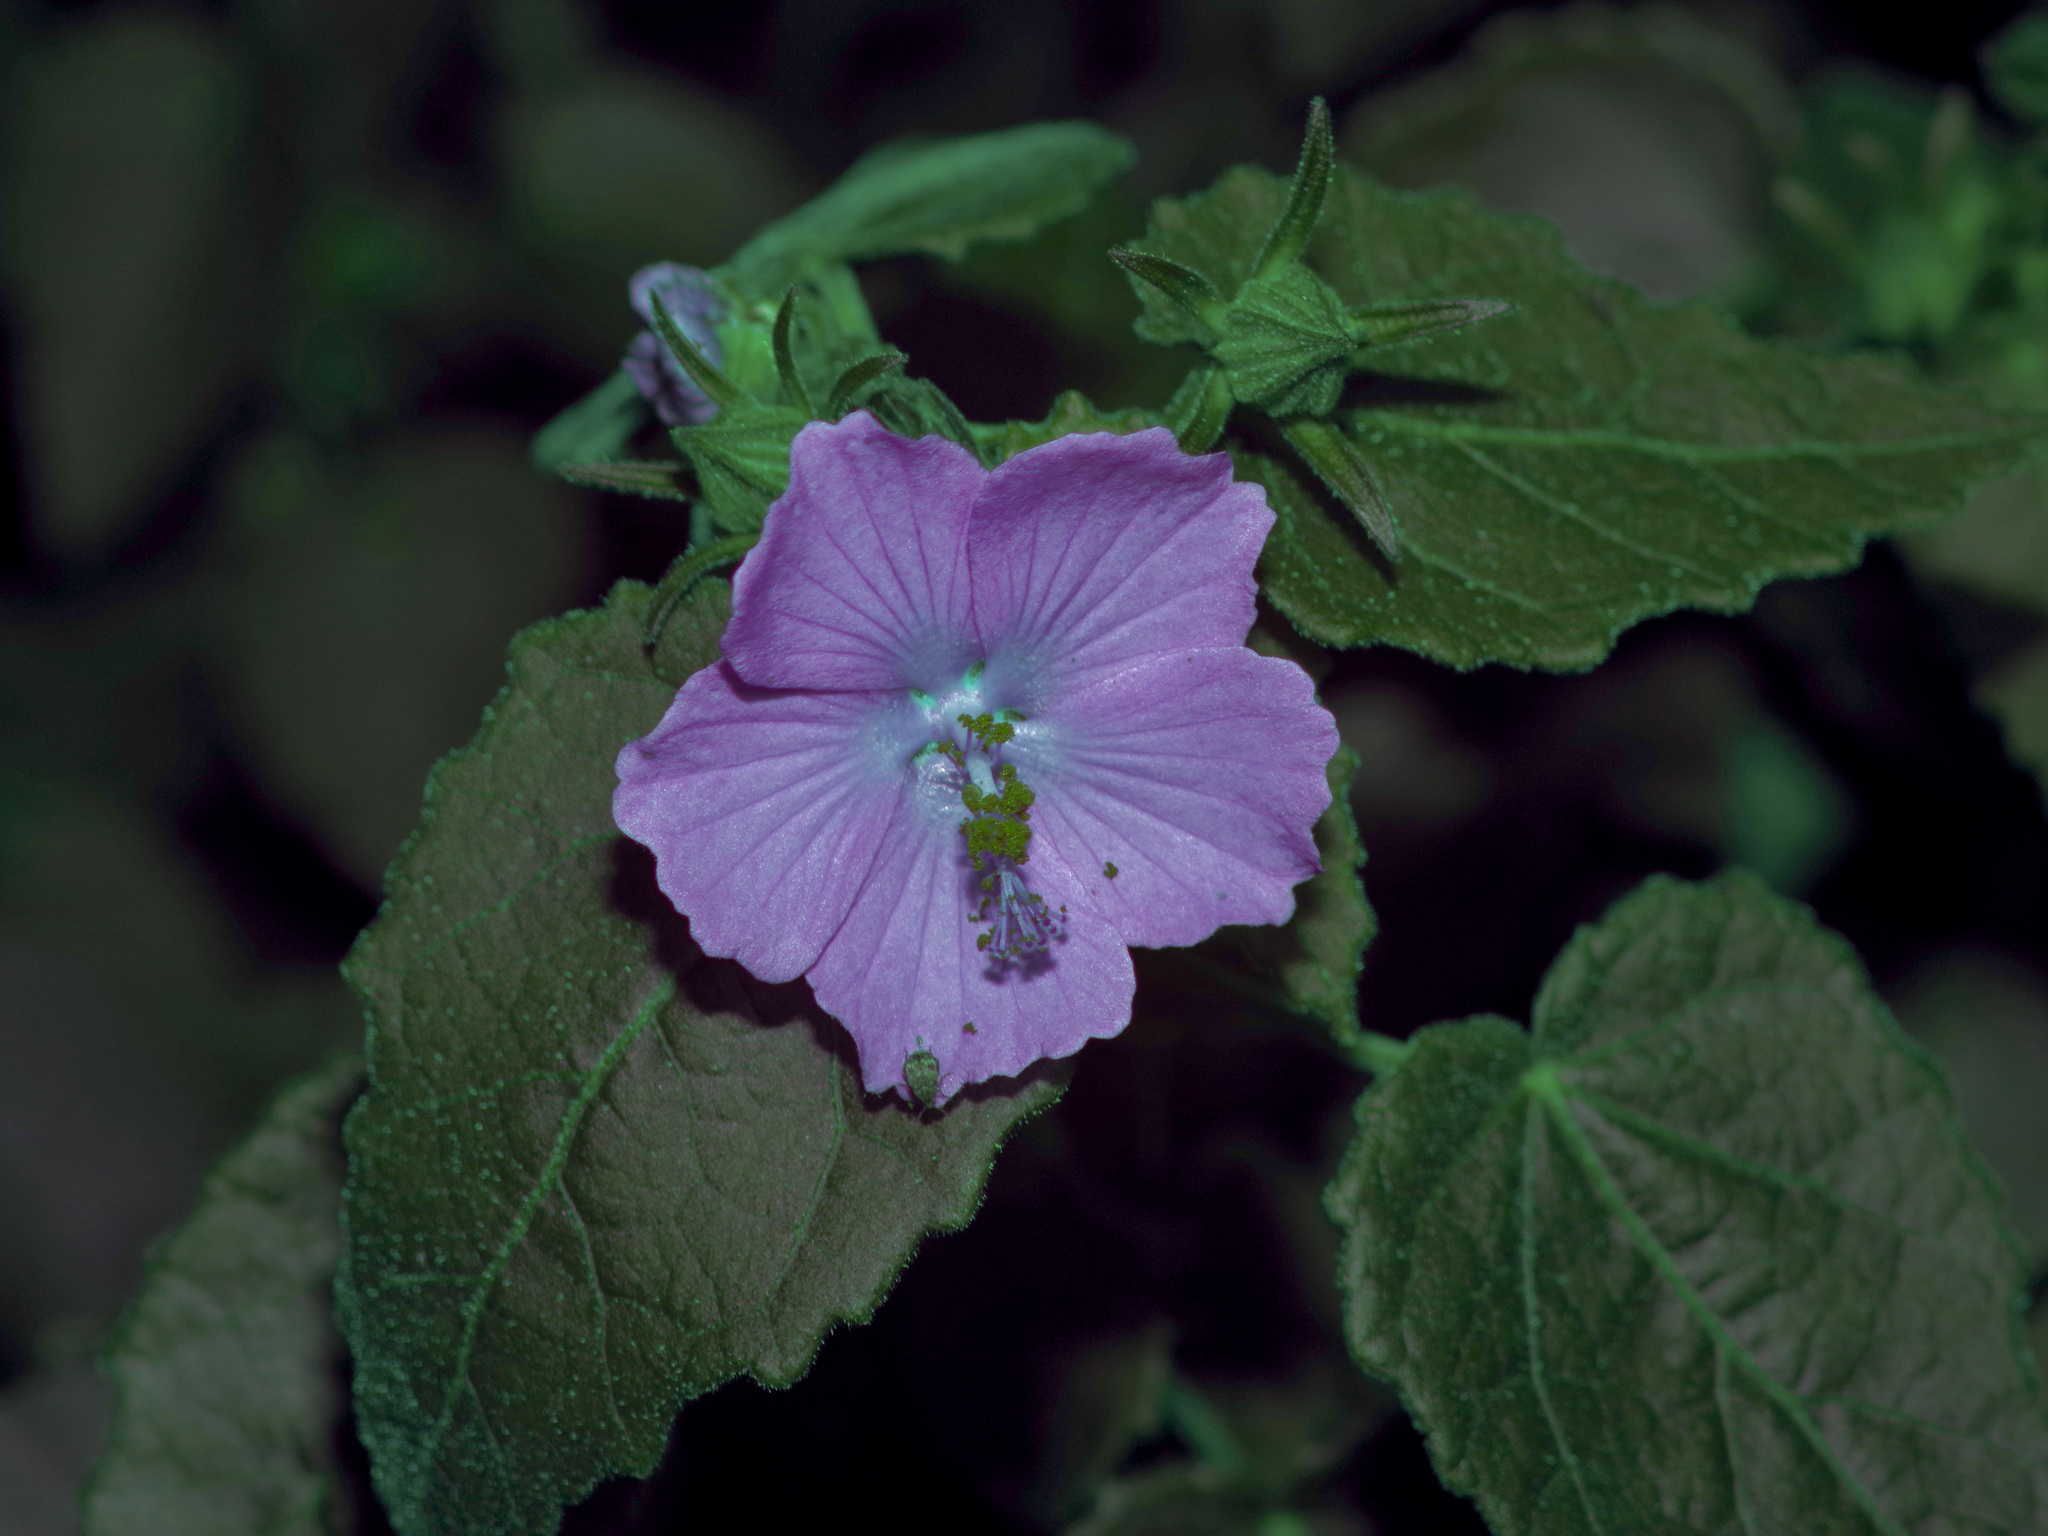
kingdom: Plantae
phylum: Tracheophyta
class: Magnoliopsida
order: Malvales
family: Malvaceae
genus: Pavonia
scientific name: Pavonia lasiopetala
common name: Texas swamp-mallow
